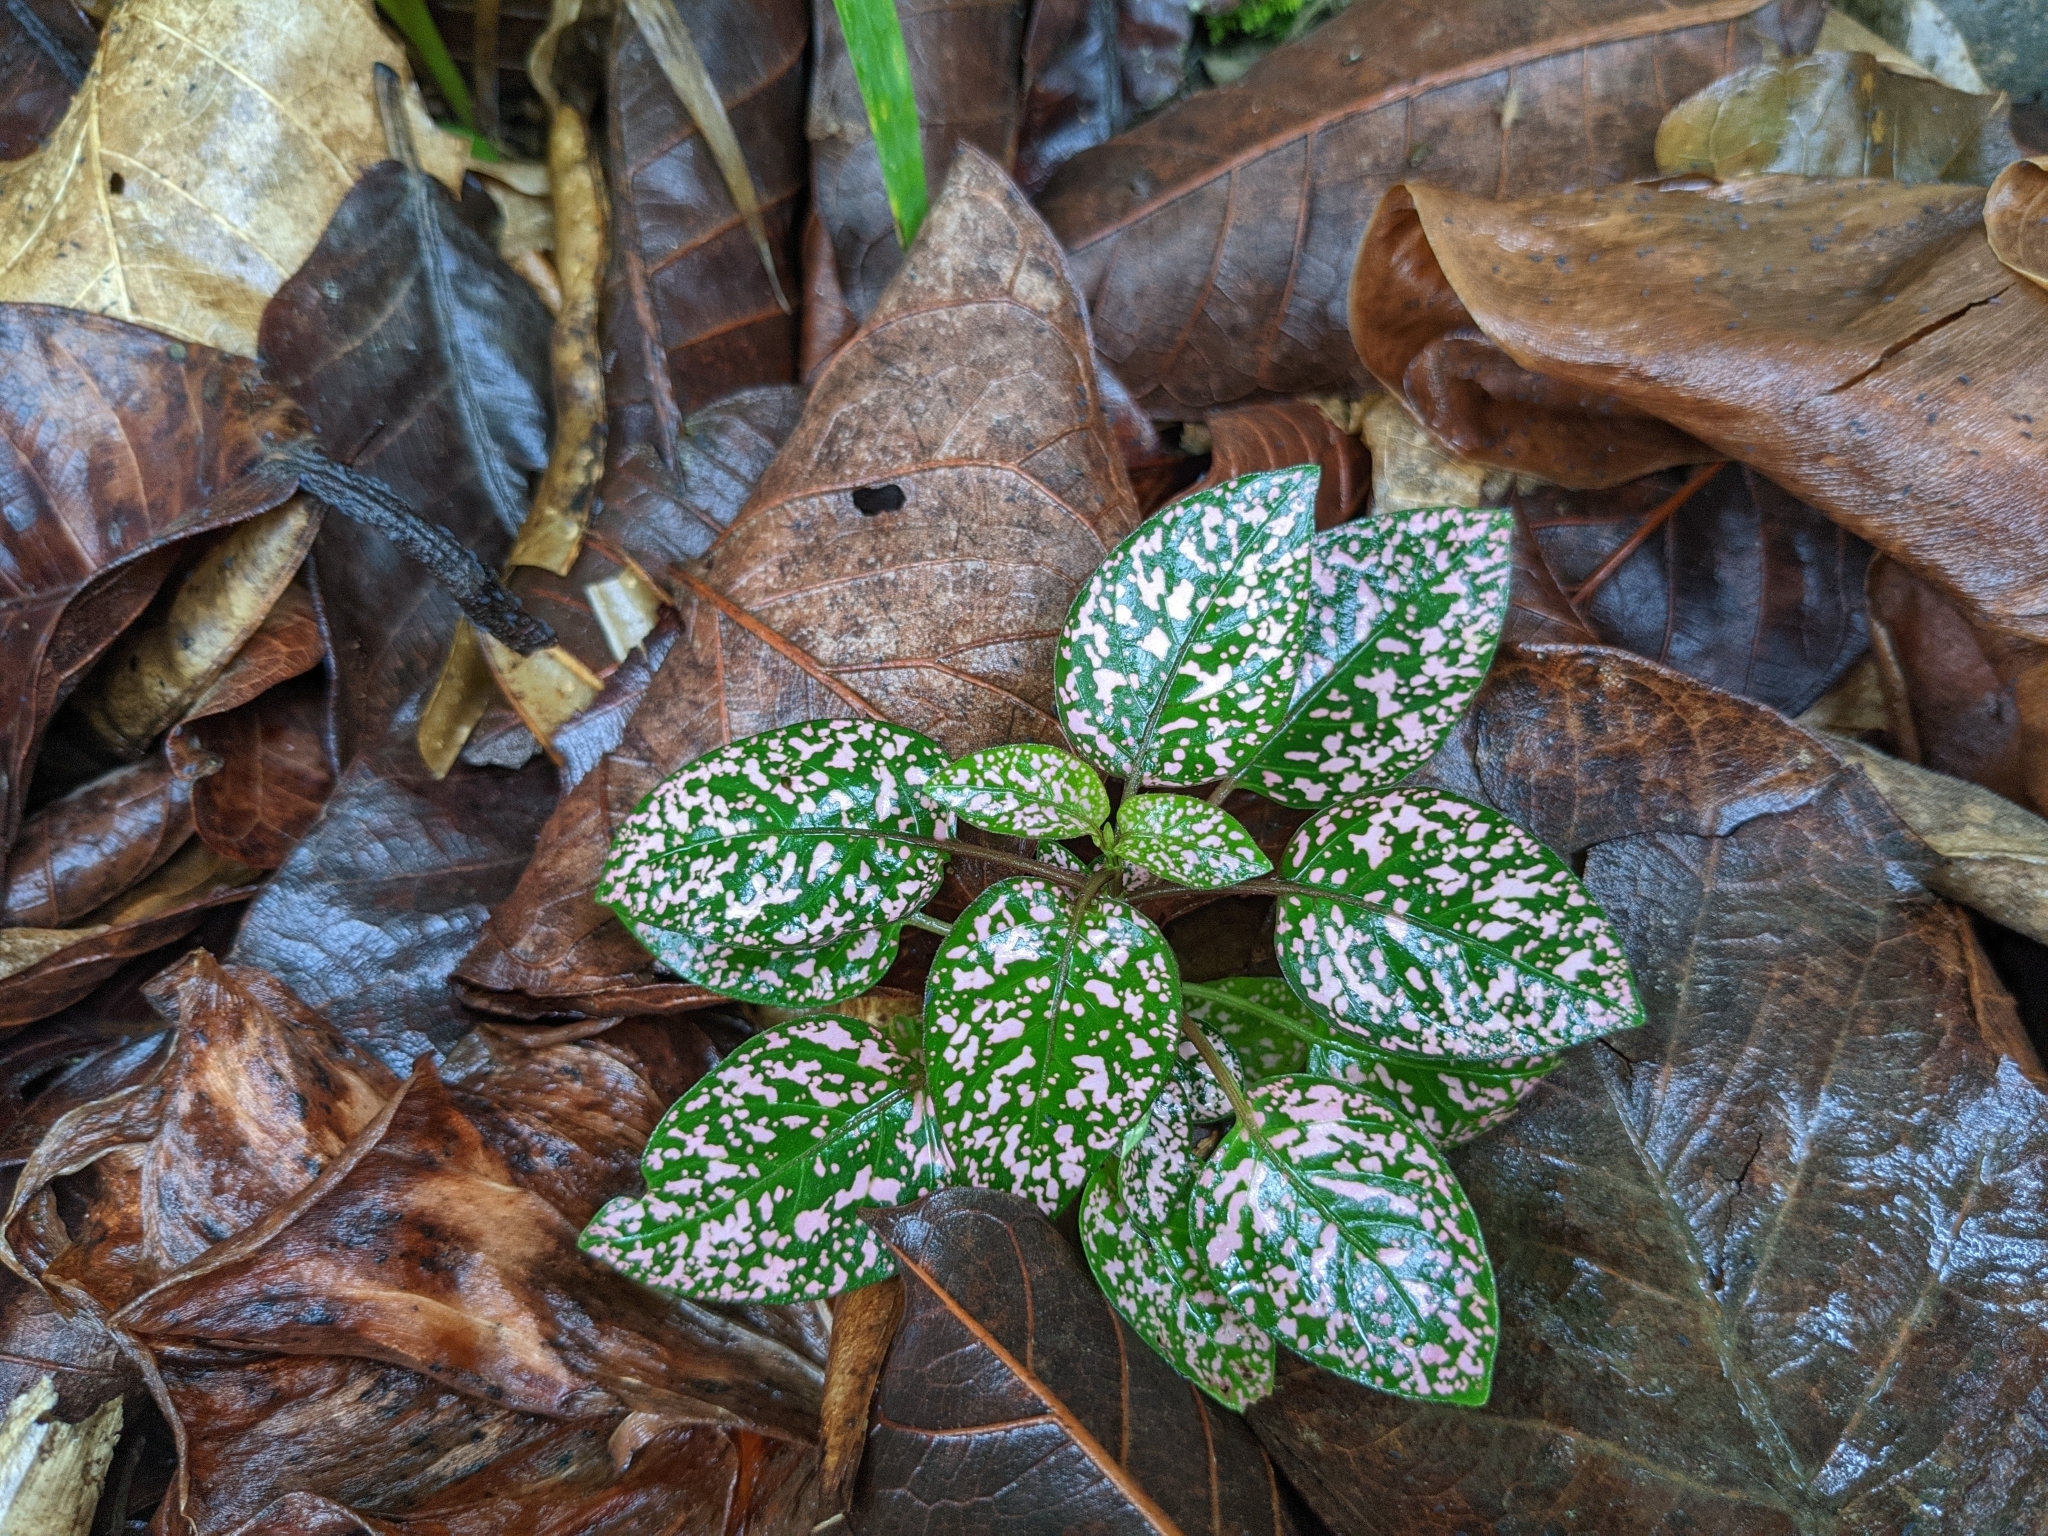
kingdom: Plantae
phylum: Tracheophyta
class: Magnoliopsida
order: Lamiales
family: Acanthaceae
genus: Hypoestes
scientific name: Hypoestes phyllostachya
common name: Polkadot-plant
